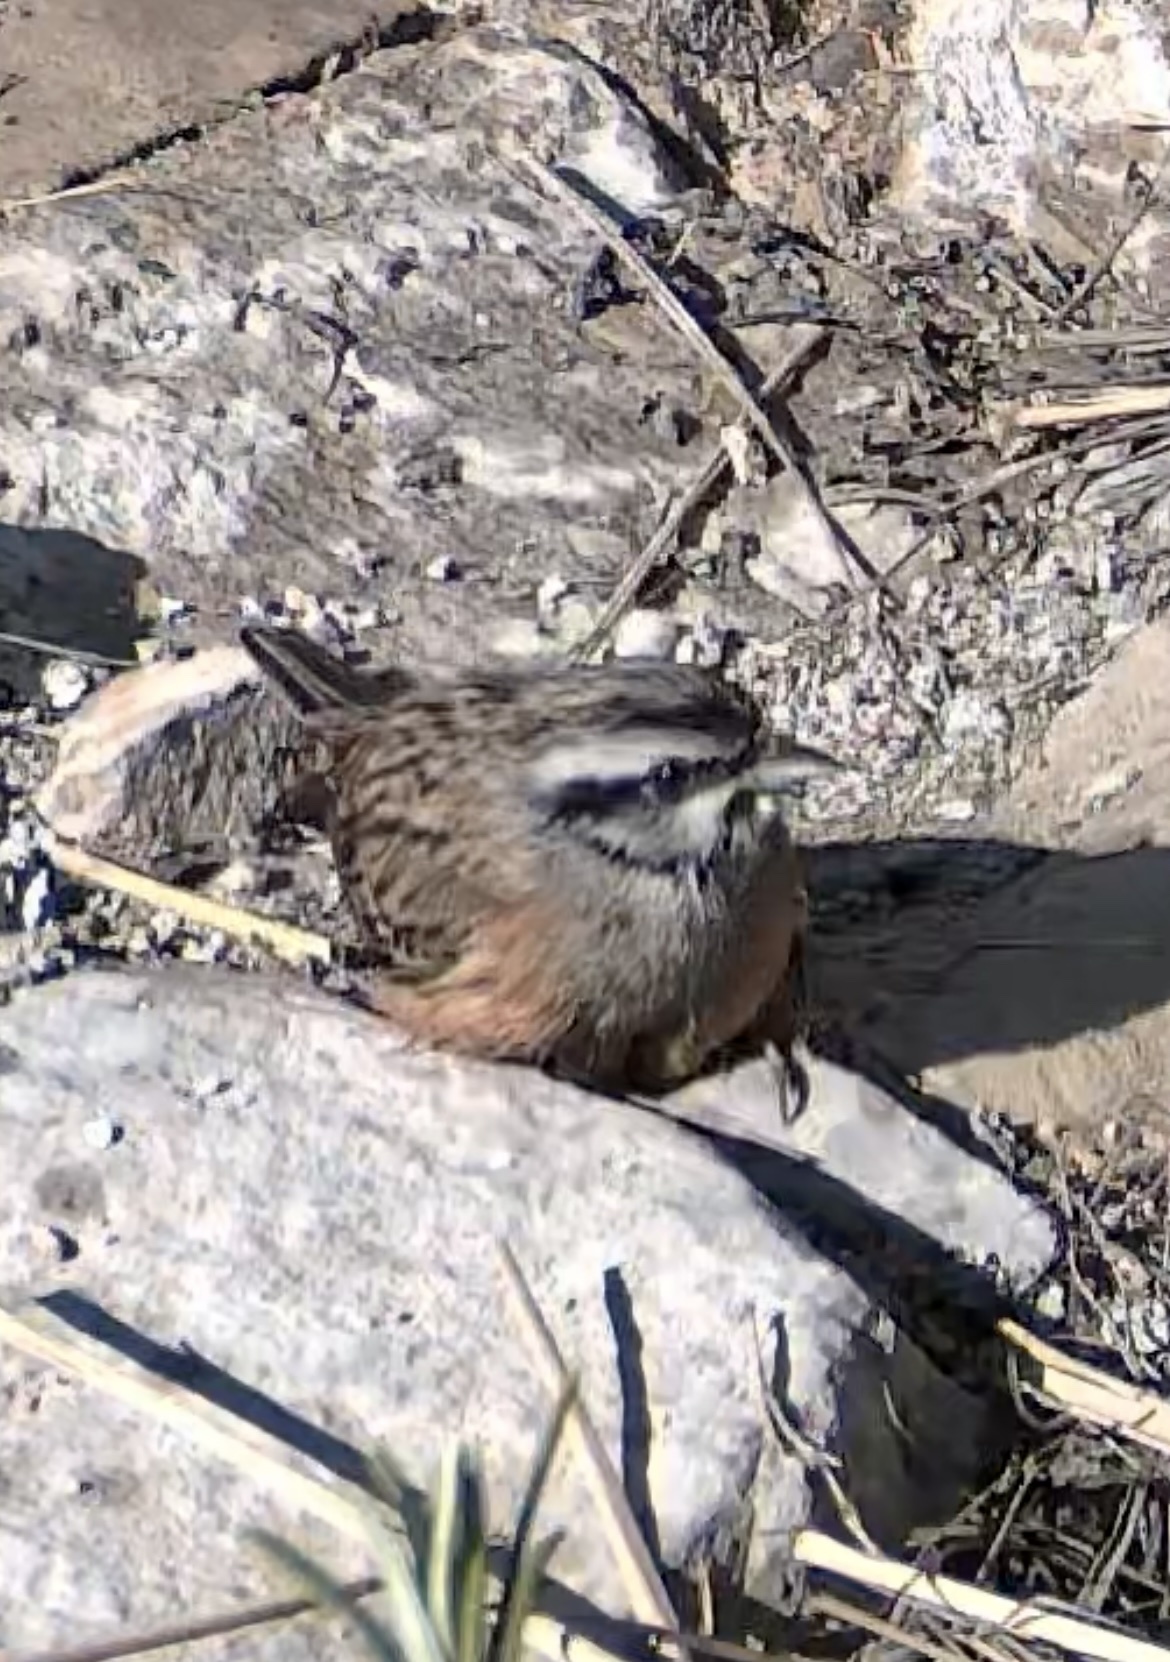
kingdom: Animalia
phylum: Chordata
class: Aves
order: Passeriformes
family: Emberizidae
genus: Emberiza
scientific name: Emberiza cia
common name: Rock bunting
